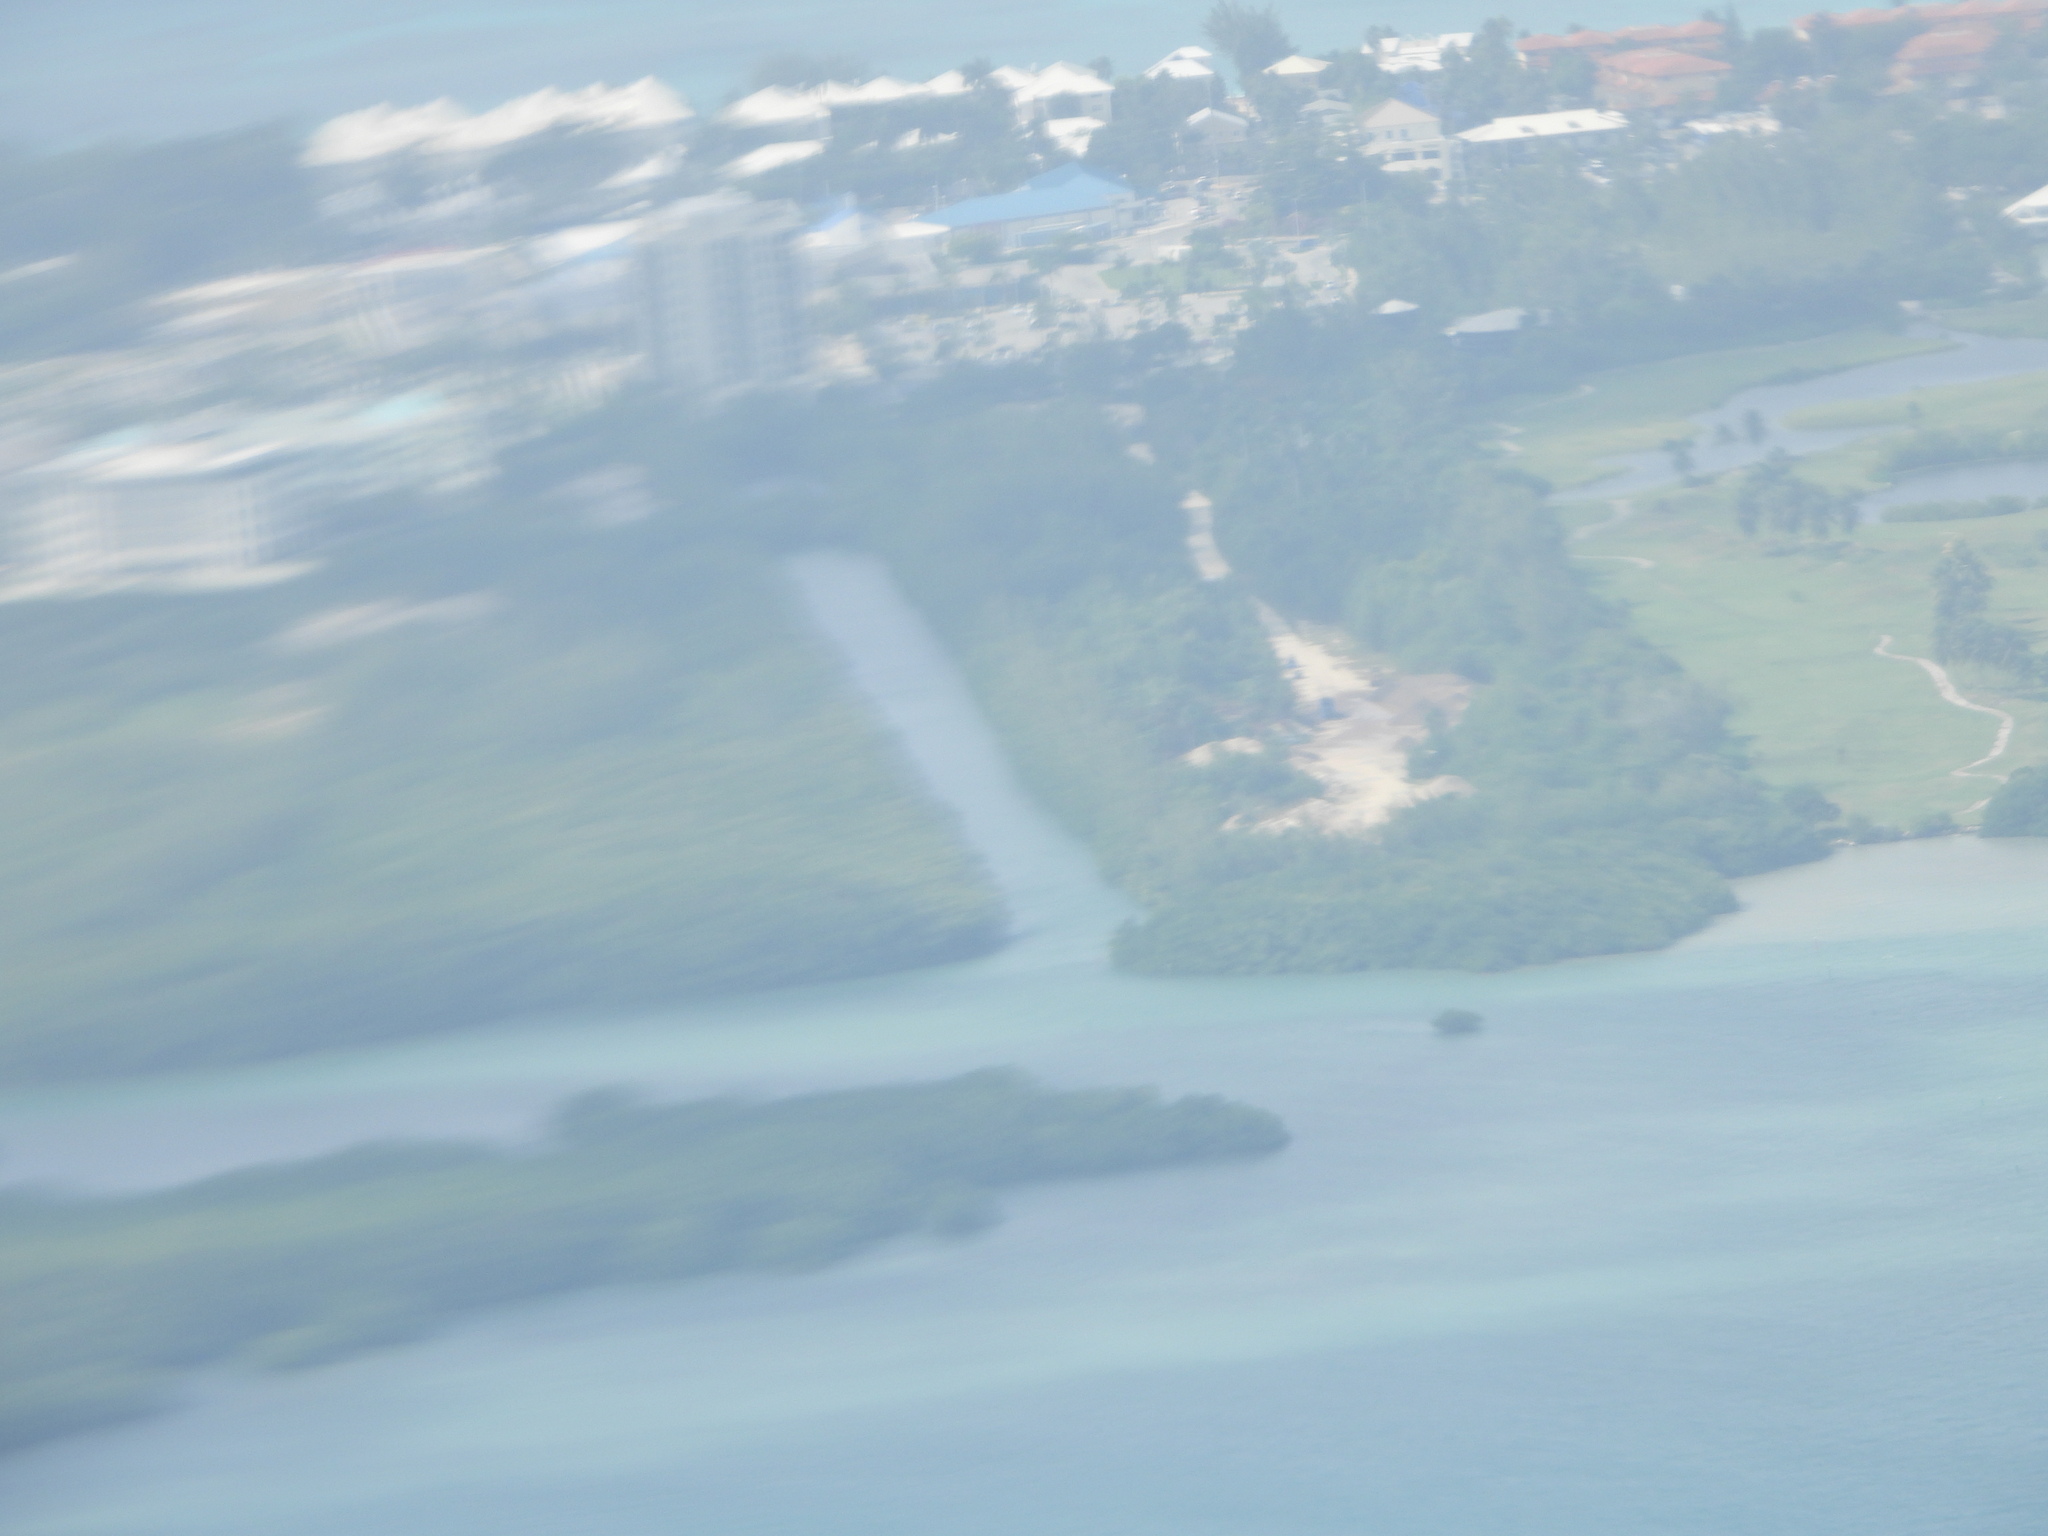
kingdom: Plantae
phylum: Tracheophyta
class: Magnoliopsida
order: Malpighiales
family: Rhizophoraceae
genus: Rhizophora
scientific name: Rhizophora mangle
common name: Red mangrove
